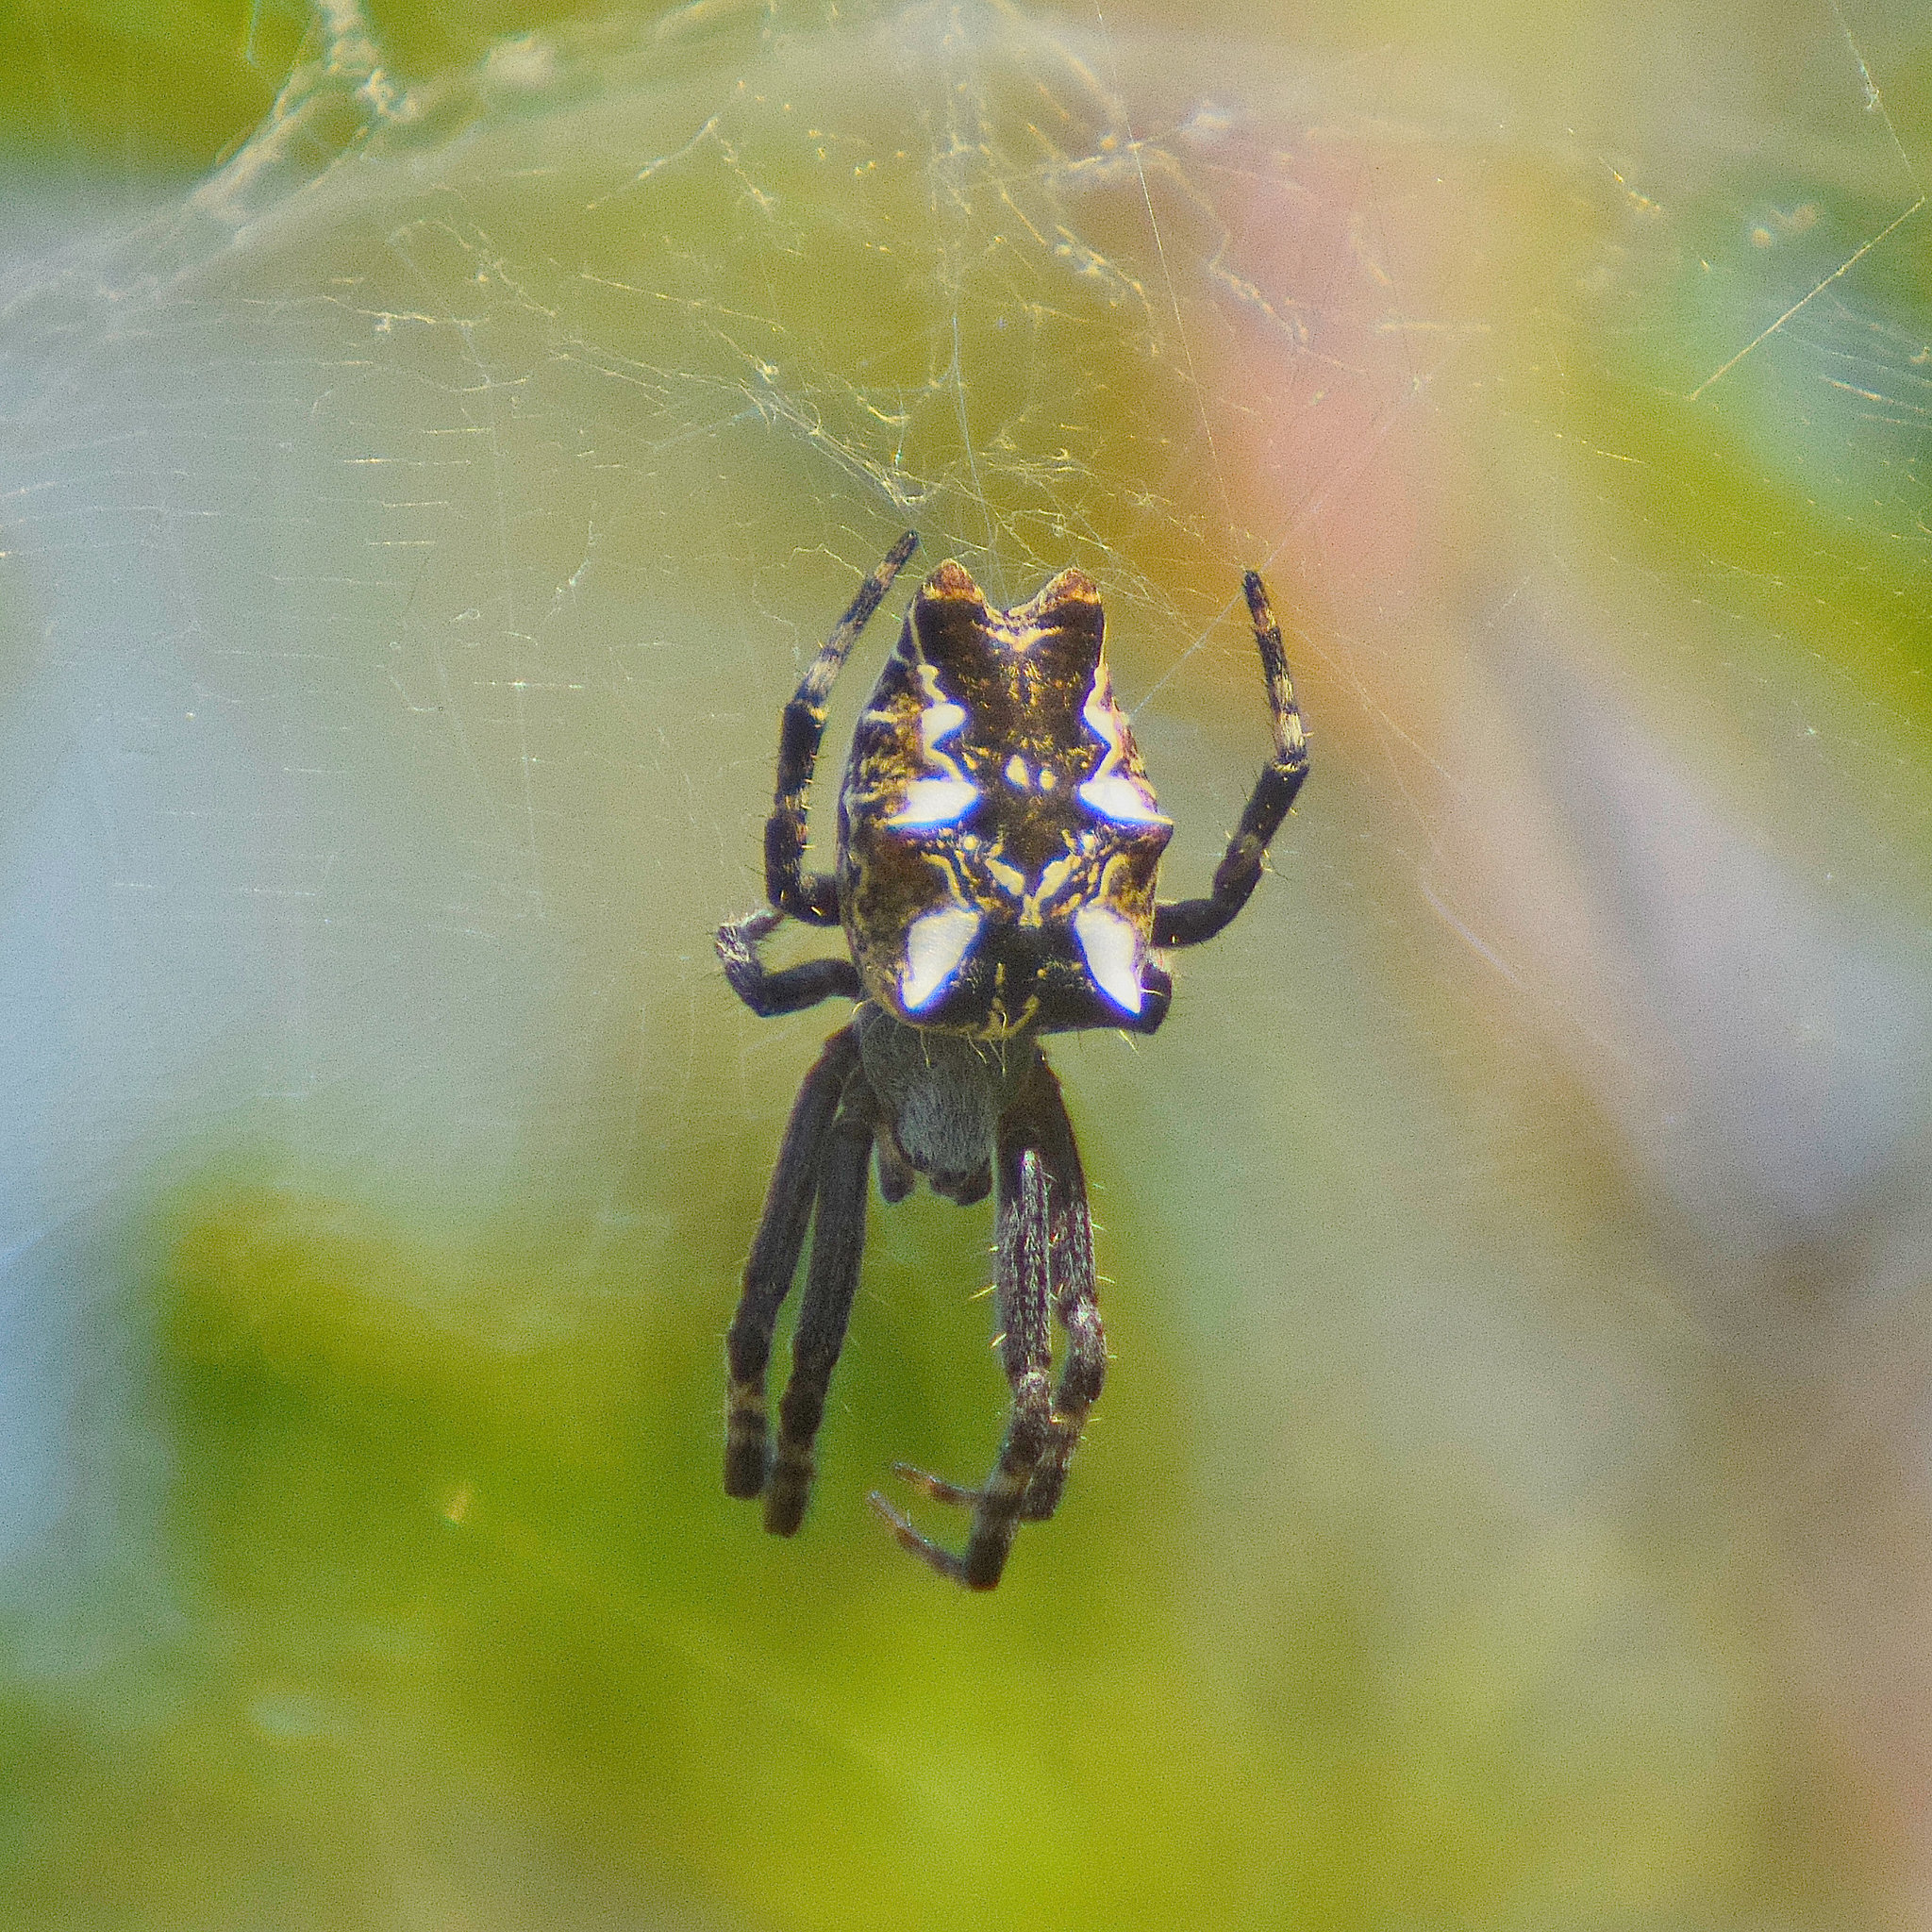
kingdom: Animalia
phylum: Arthropoda
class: Arachnida
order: Araneae
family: Araneidae
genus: Cyrtophora
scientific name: Cyrtophora citricola
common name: Orb weavers
